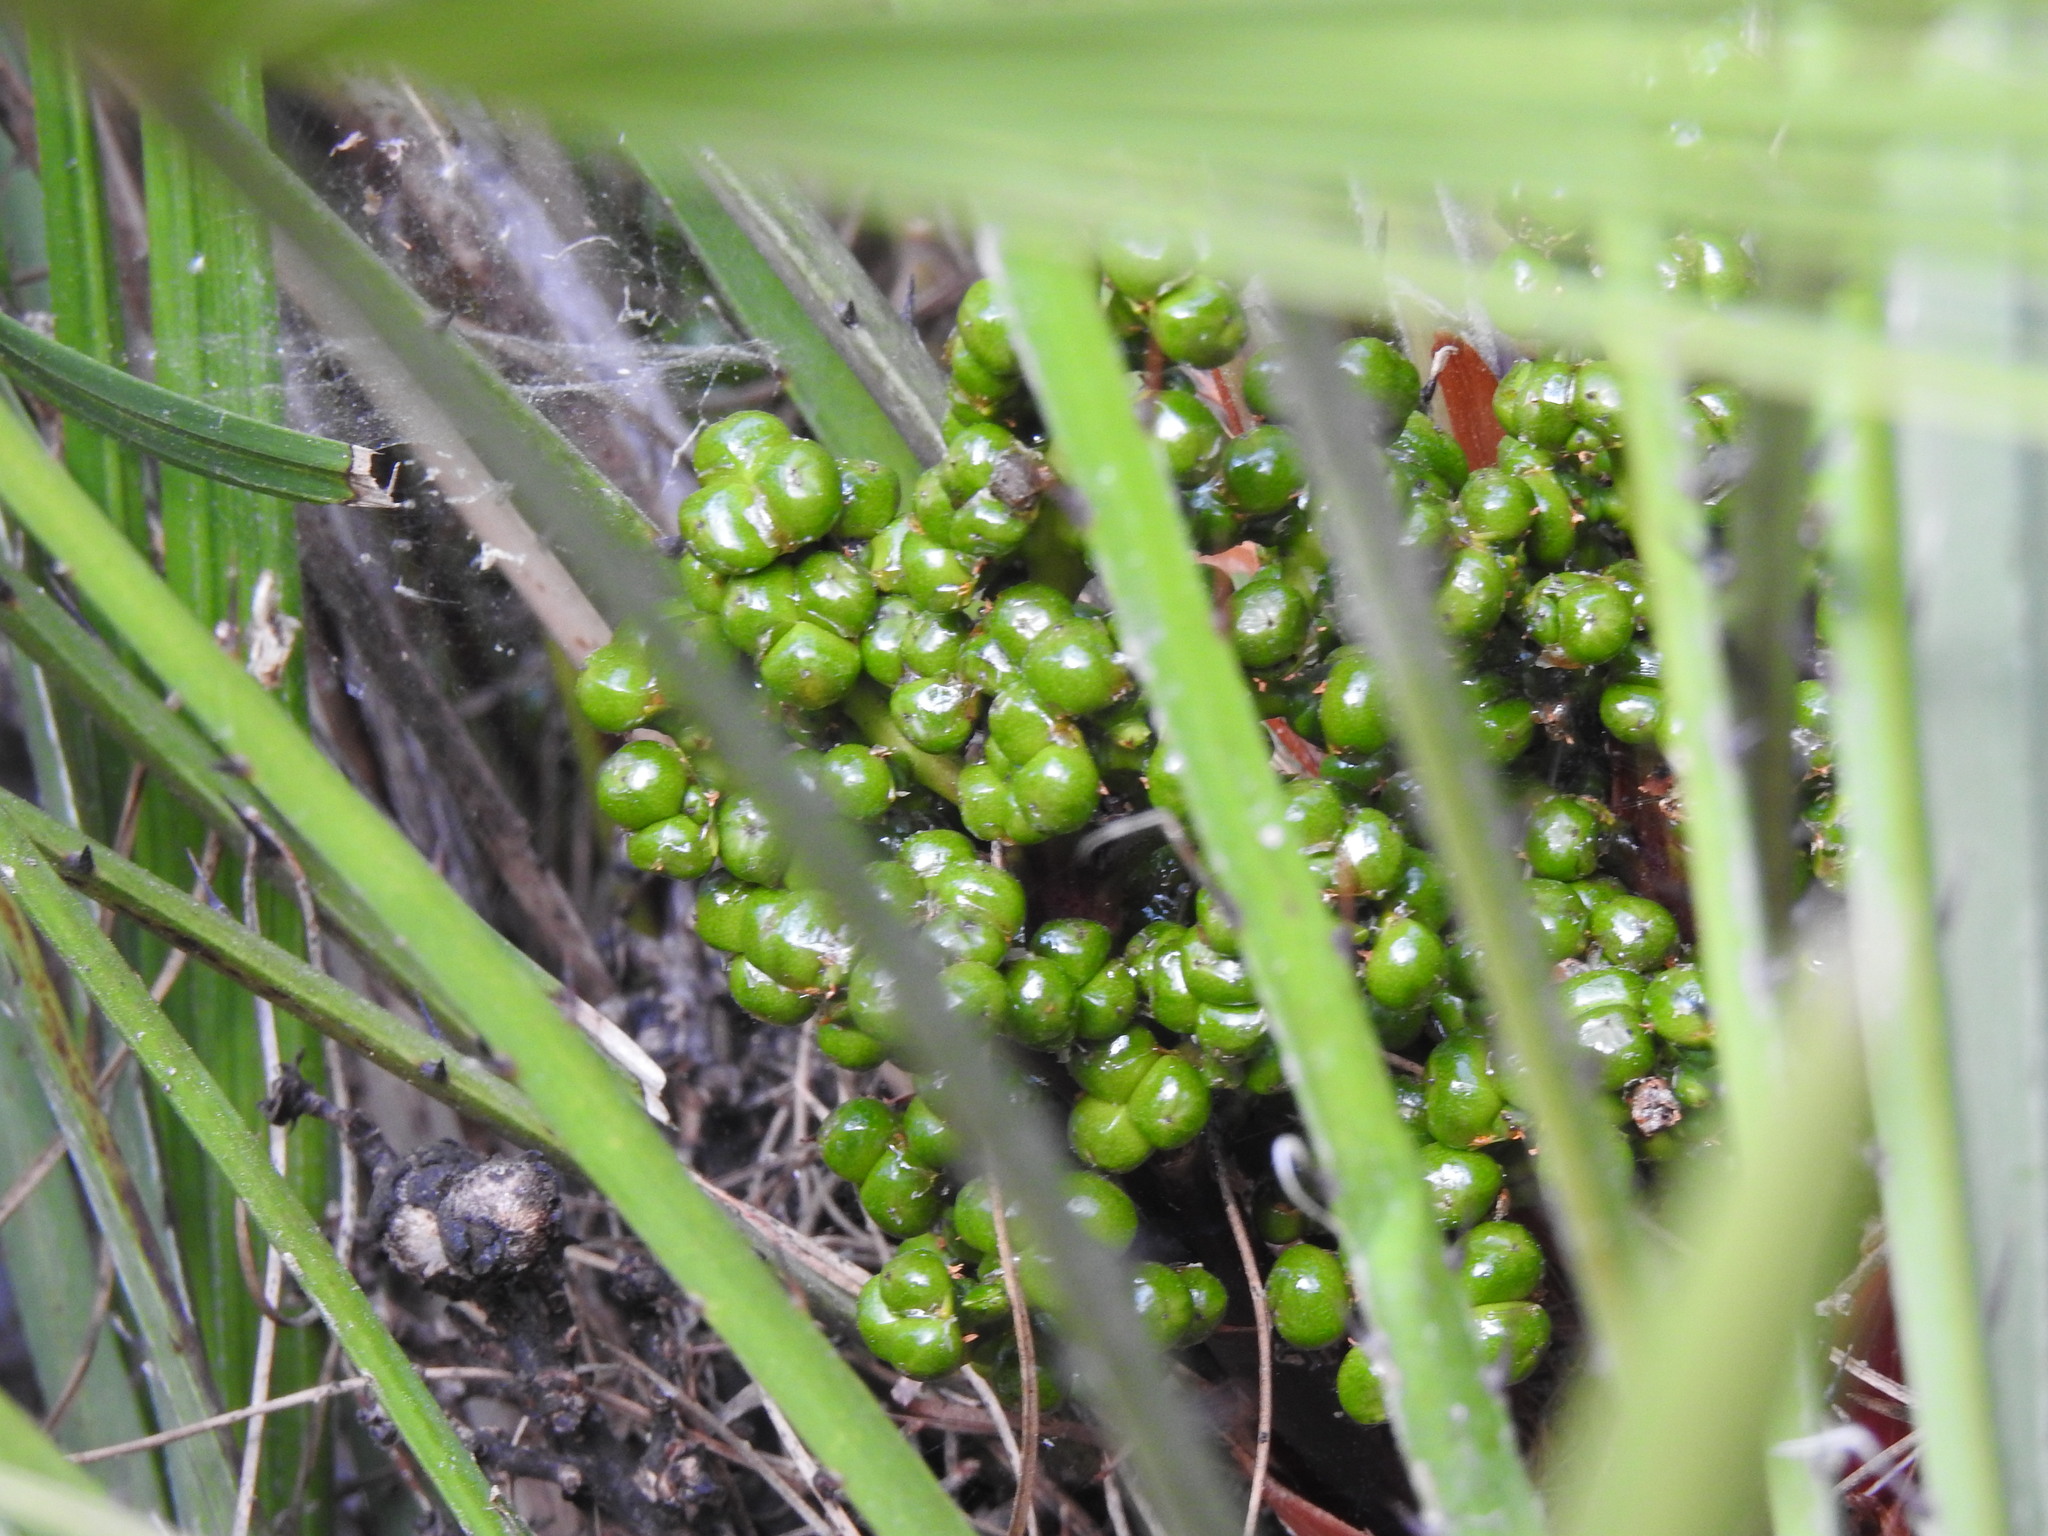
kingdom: Plantae
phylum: Tracheophyta
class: Liliopsida
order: Arecales
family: Arecaceae
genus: Chamaerops
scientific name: Chamaerops humilis
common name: Dwarf fan palm
